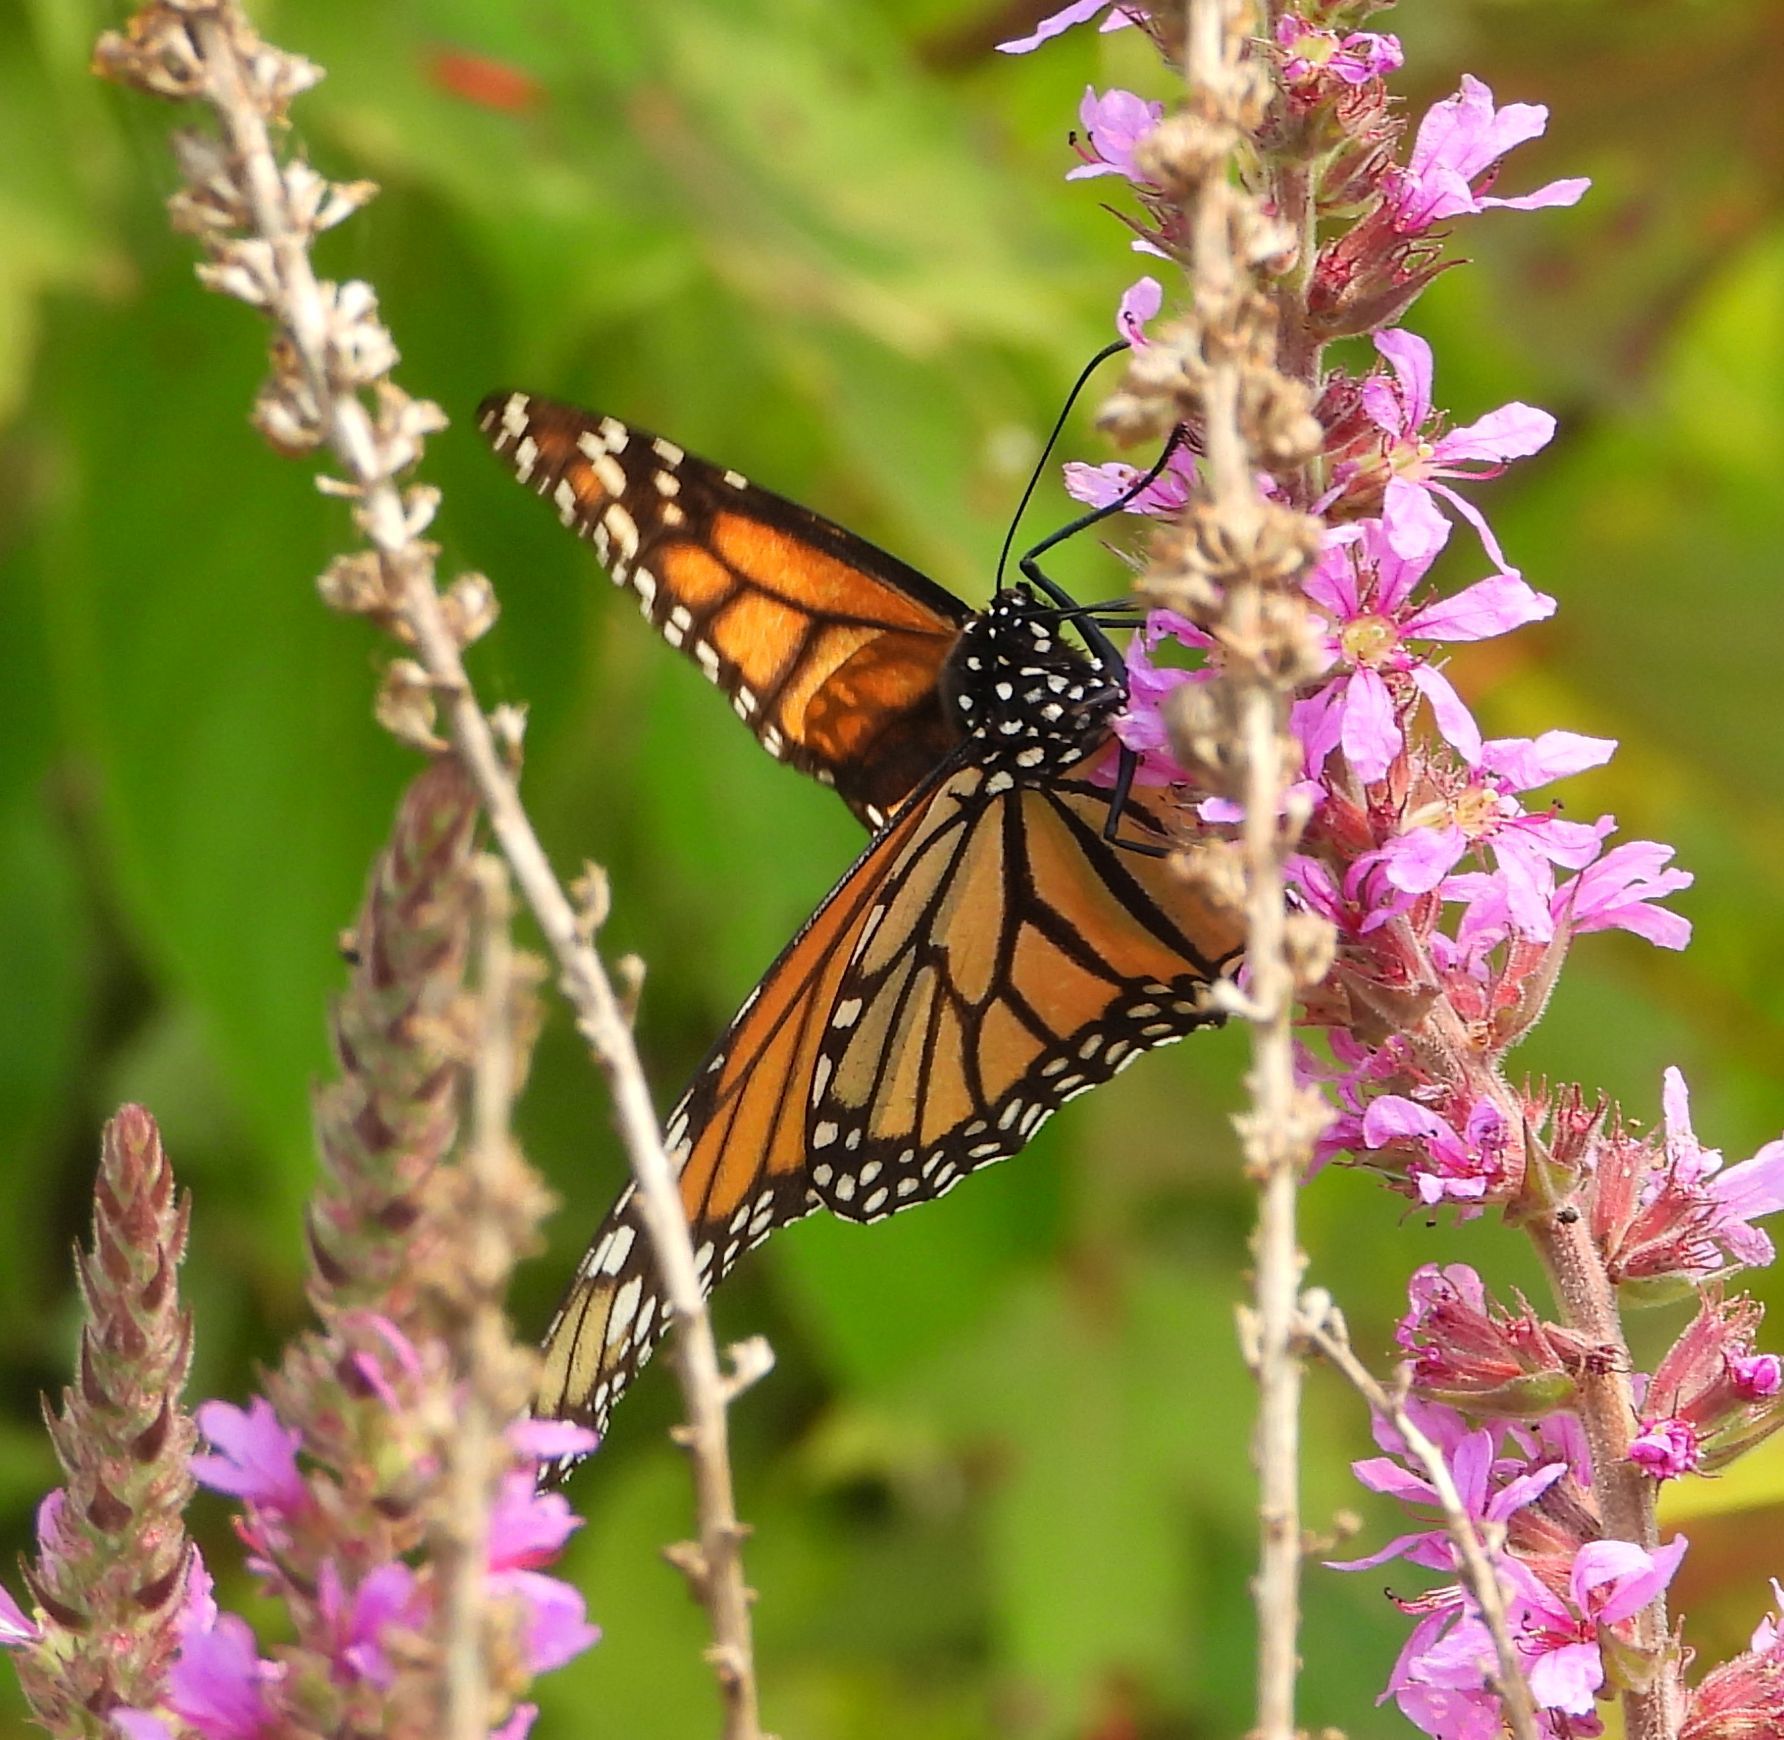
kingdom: Animalia
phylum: Arthropoda
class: Insecta
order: Lepidoptera
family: Nymphalidae
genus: Danaus
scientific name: Danaus plexippus
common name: Monarch
